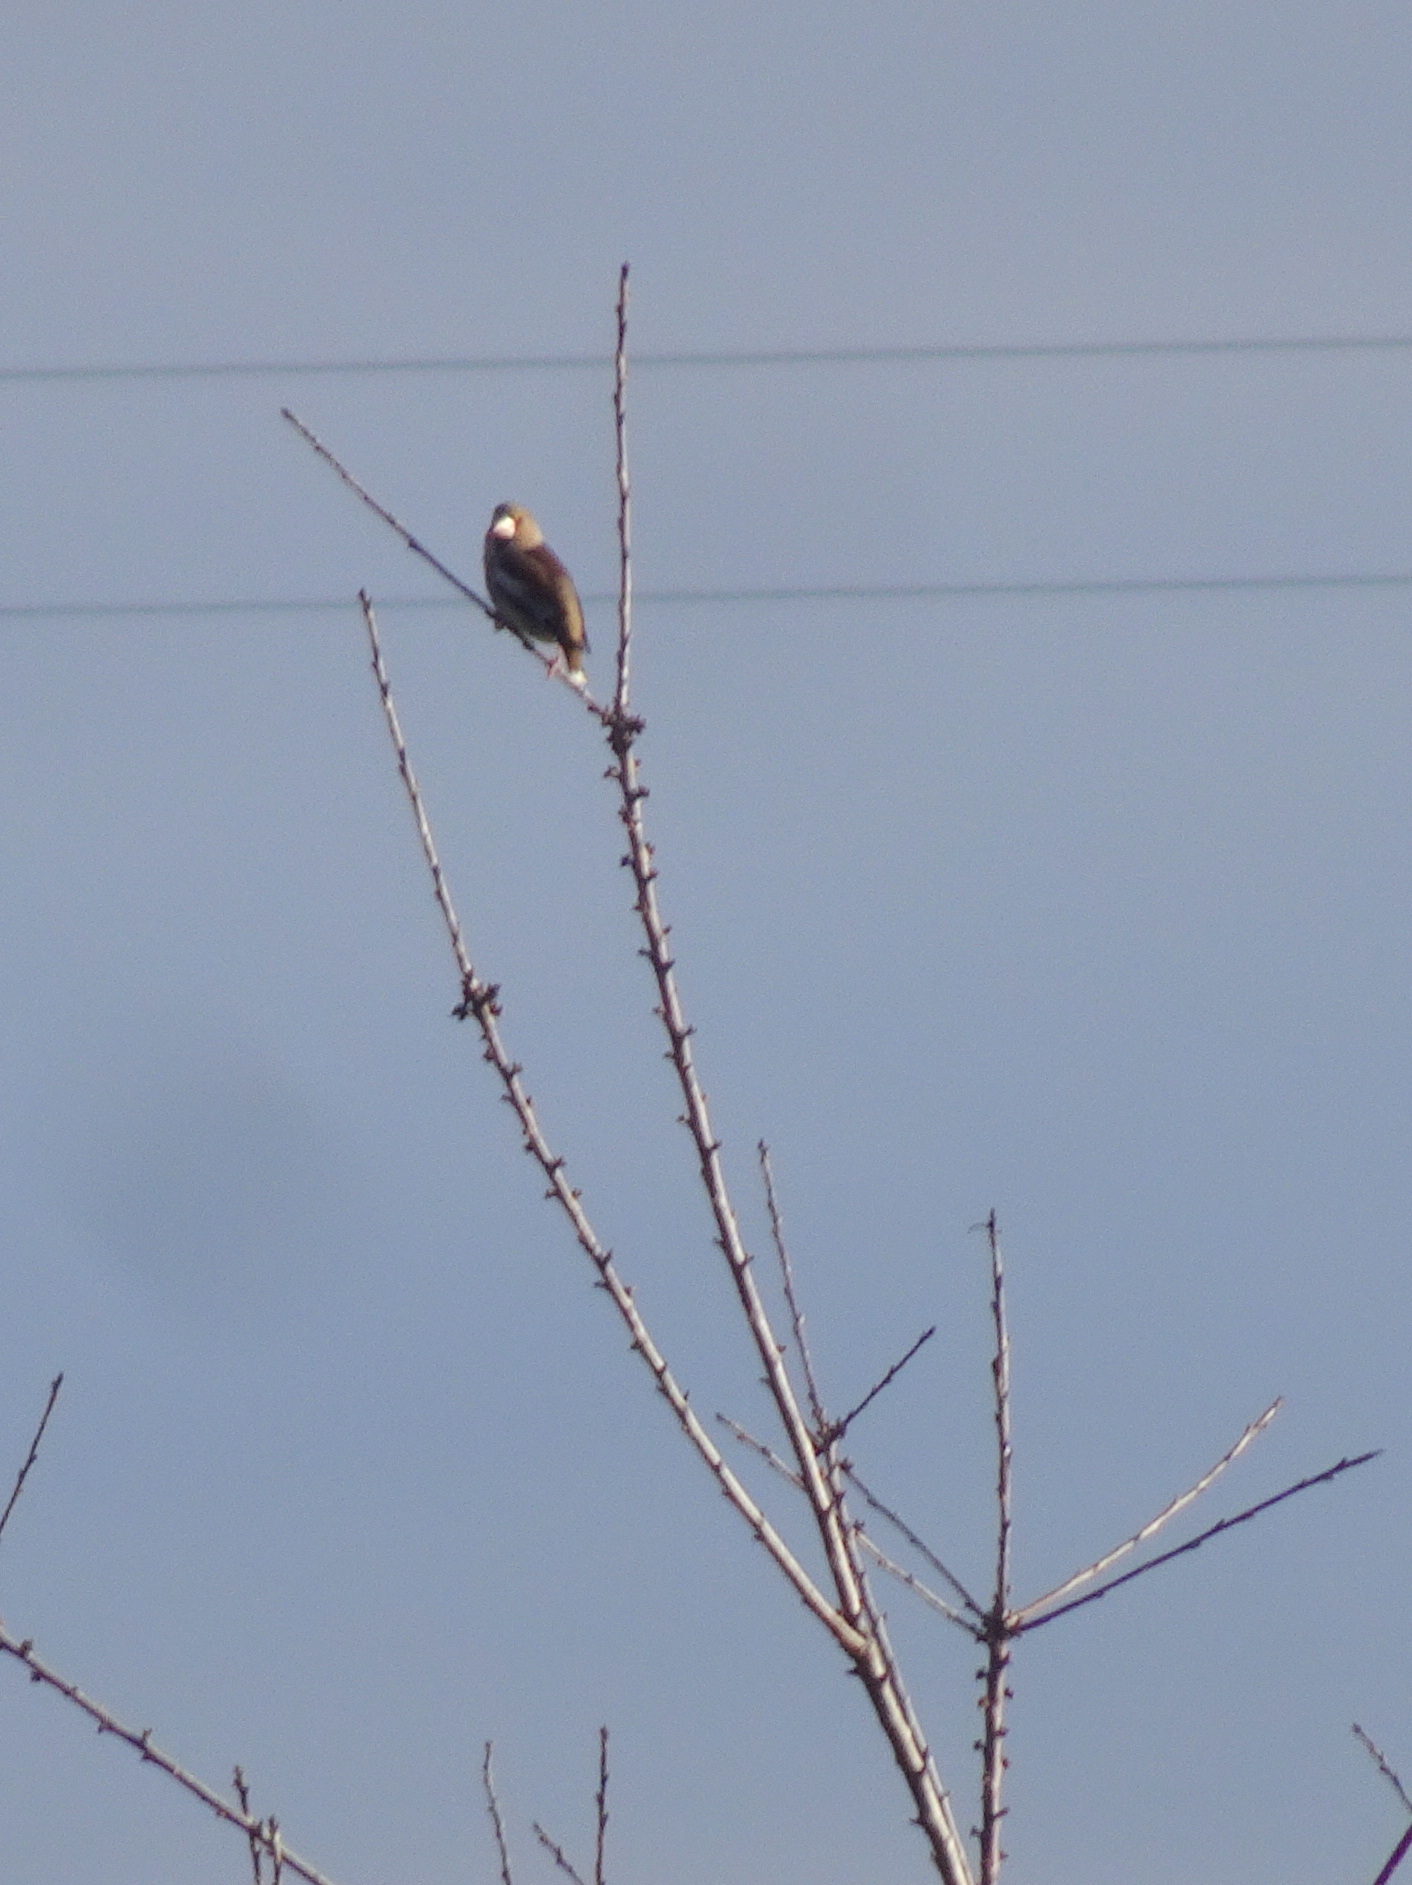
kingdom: Animalia
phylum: Chordata
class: Aves
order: Passeriformes
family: Fringillidae
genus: Coccothraustes
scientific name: Coccothraustes coccothraustes
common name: Hawfinch
